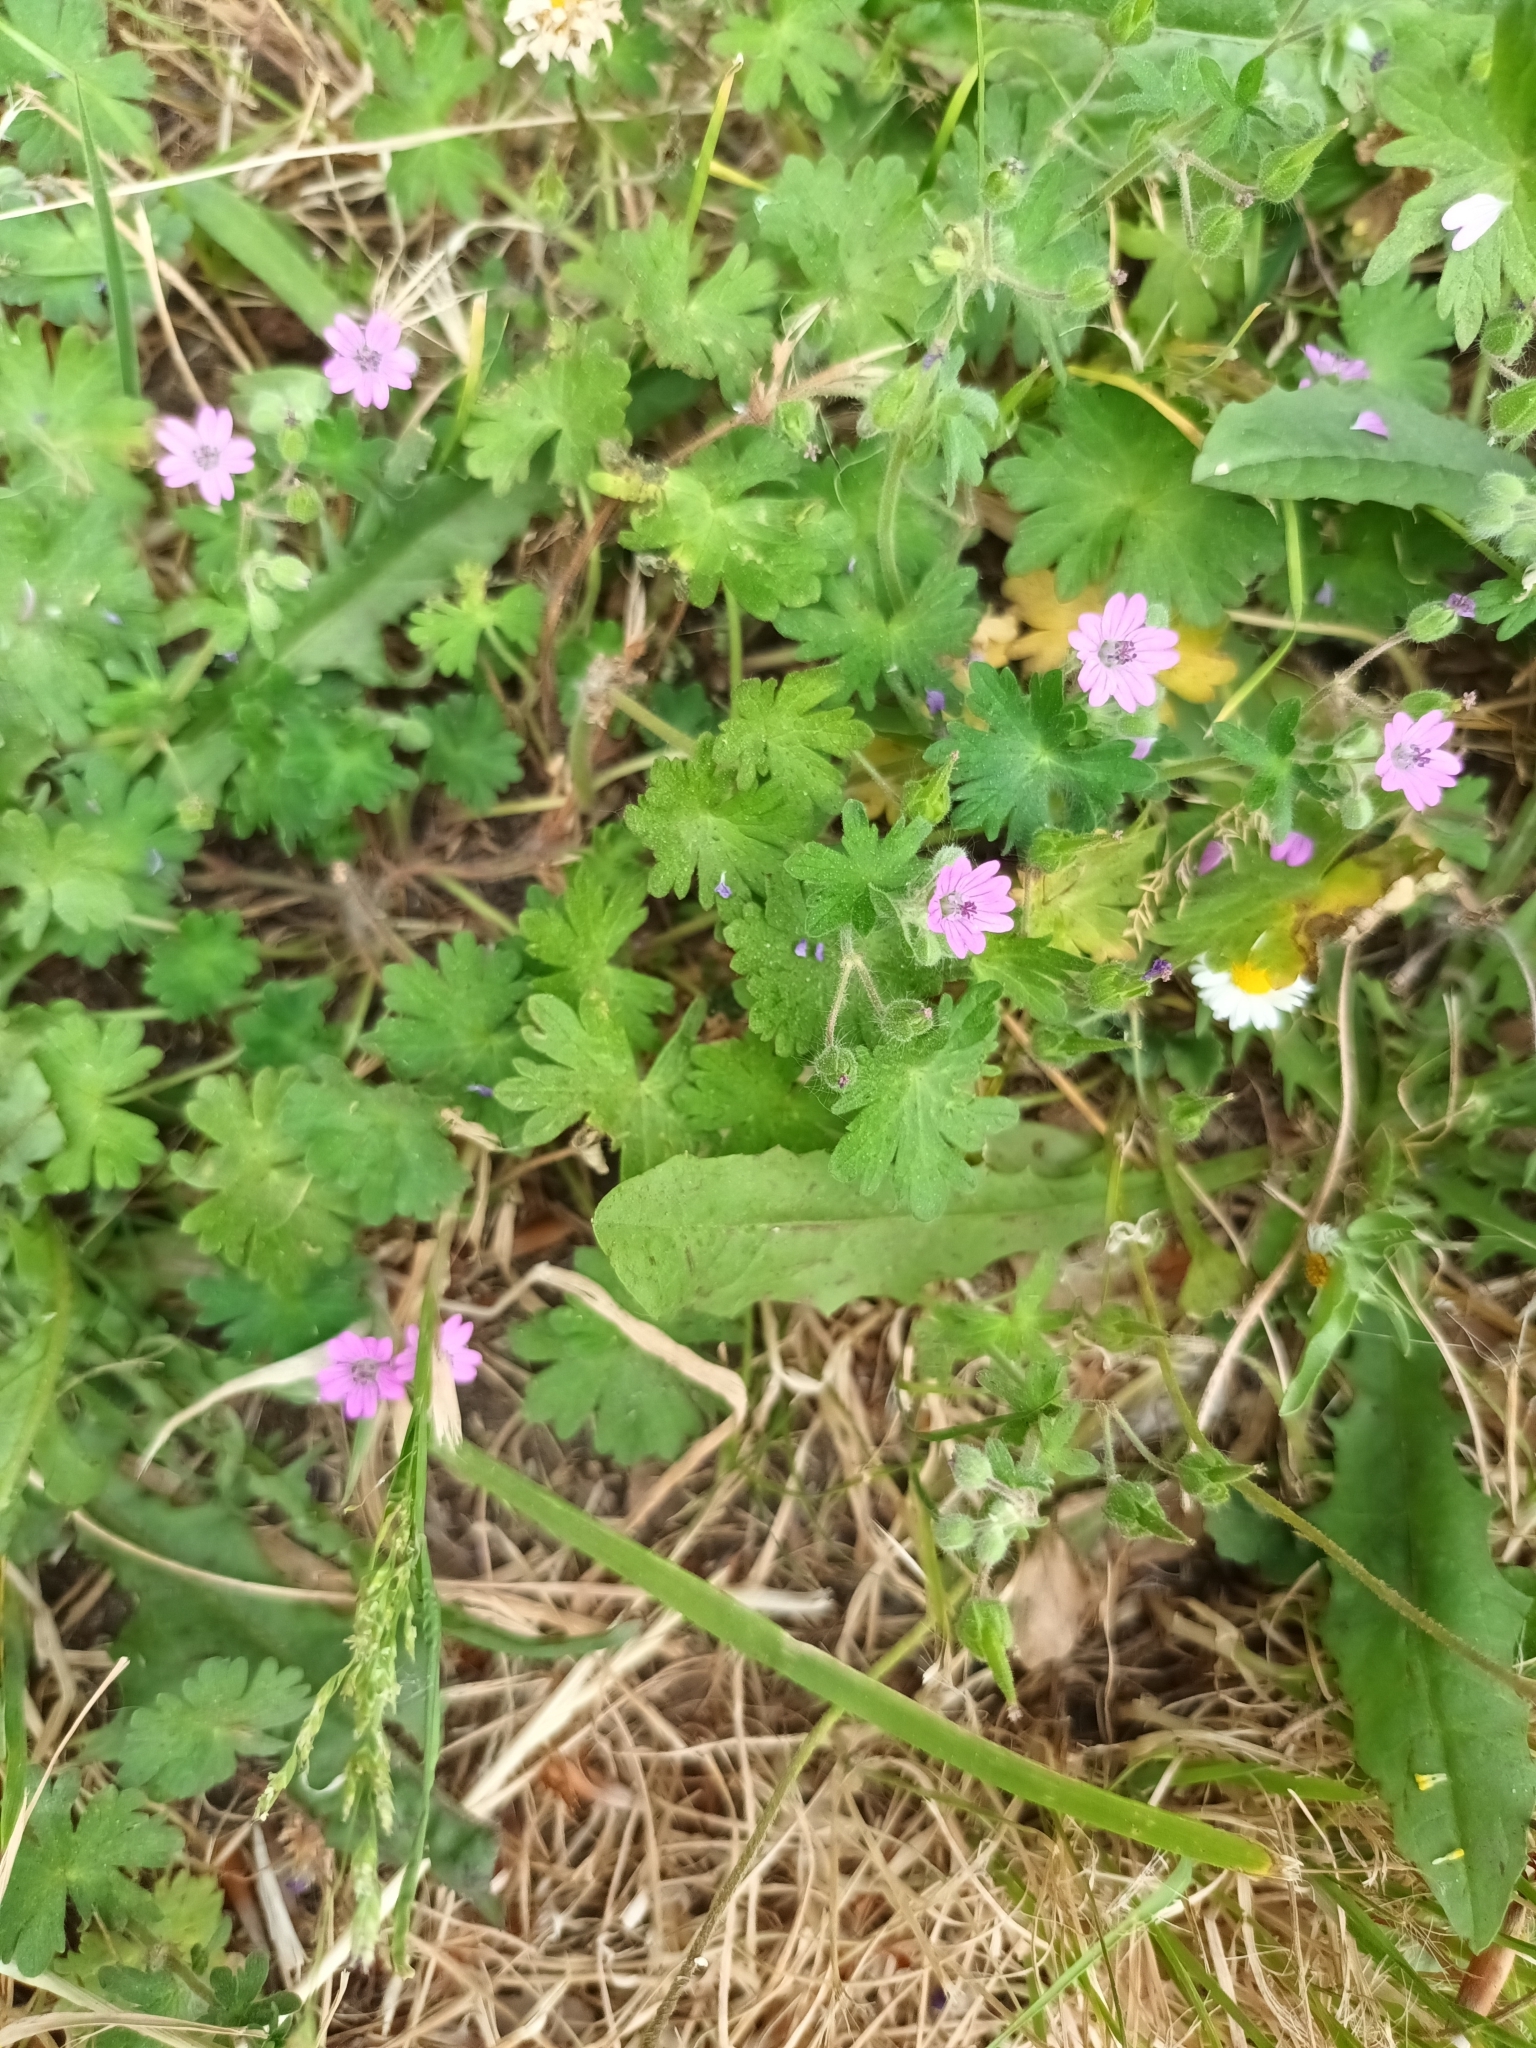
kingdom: Plantae
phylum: Tracheophyta
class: Magnoliopsida
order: Geraniales
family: Geraniaceae
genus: Geranium
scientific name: Geranium molle
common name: Dove's-foot crane's-bill
